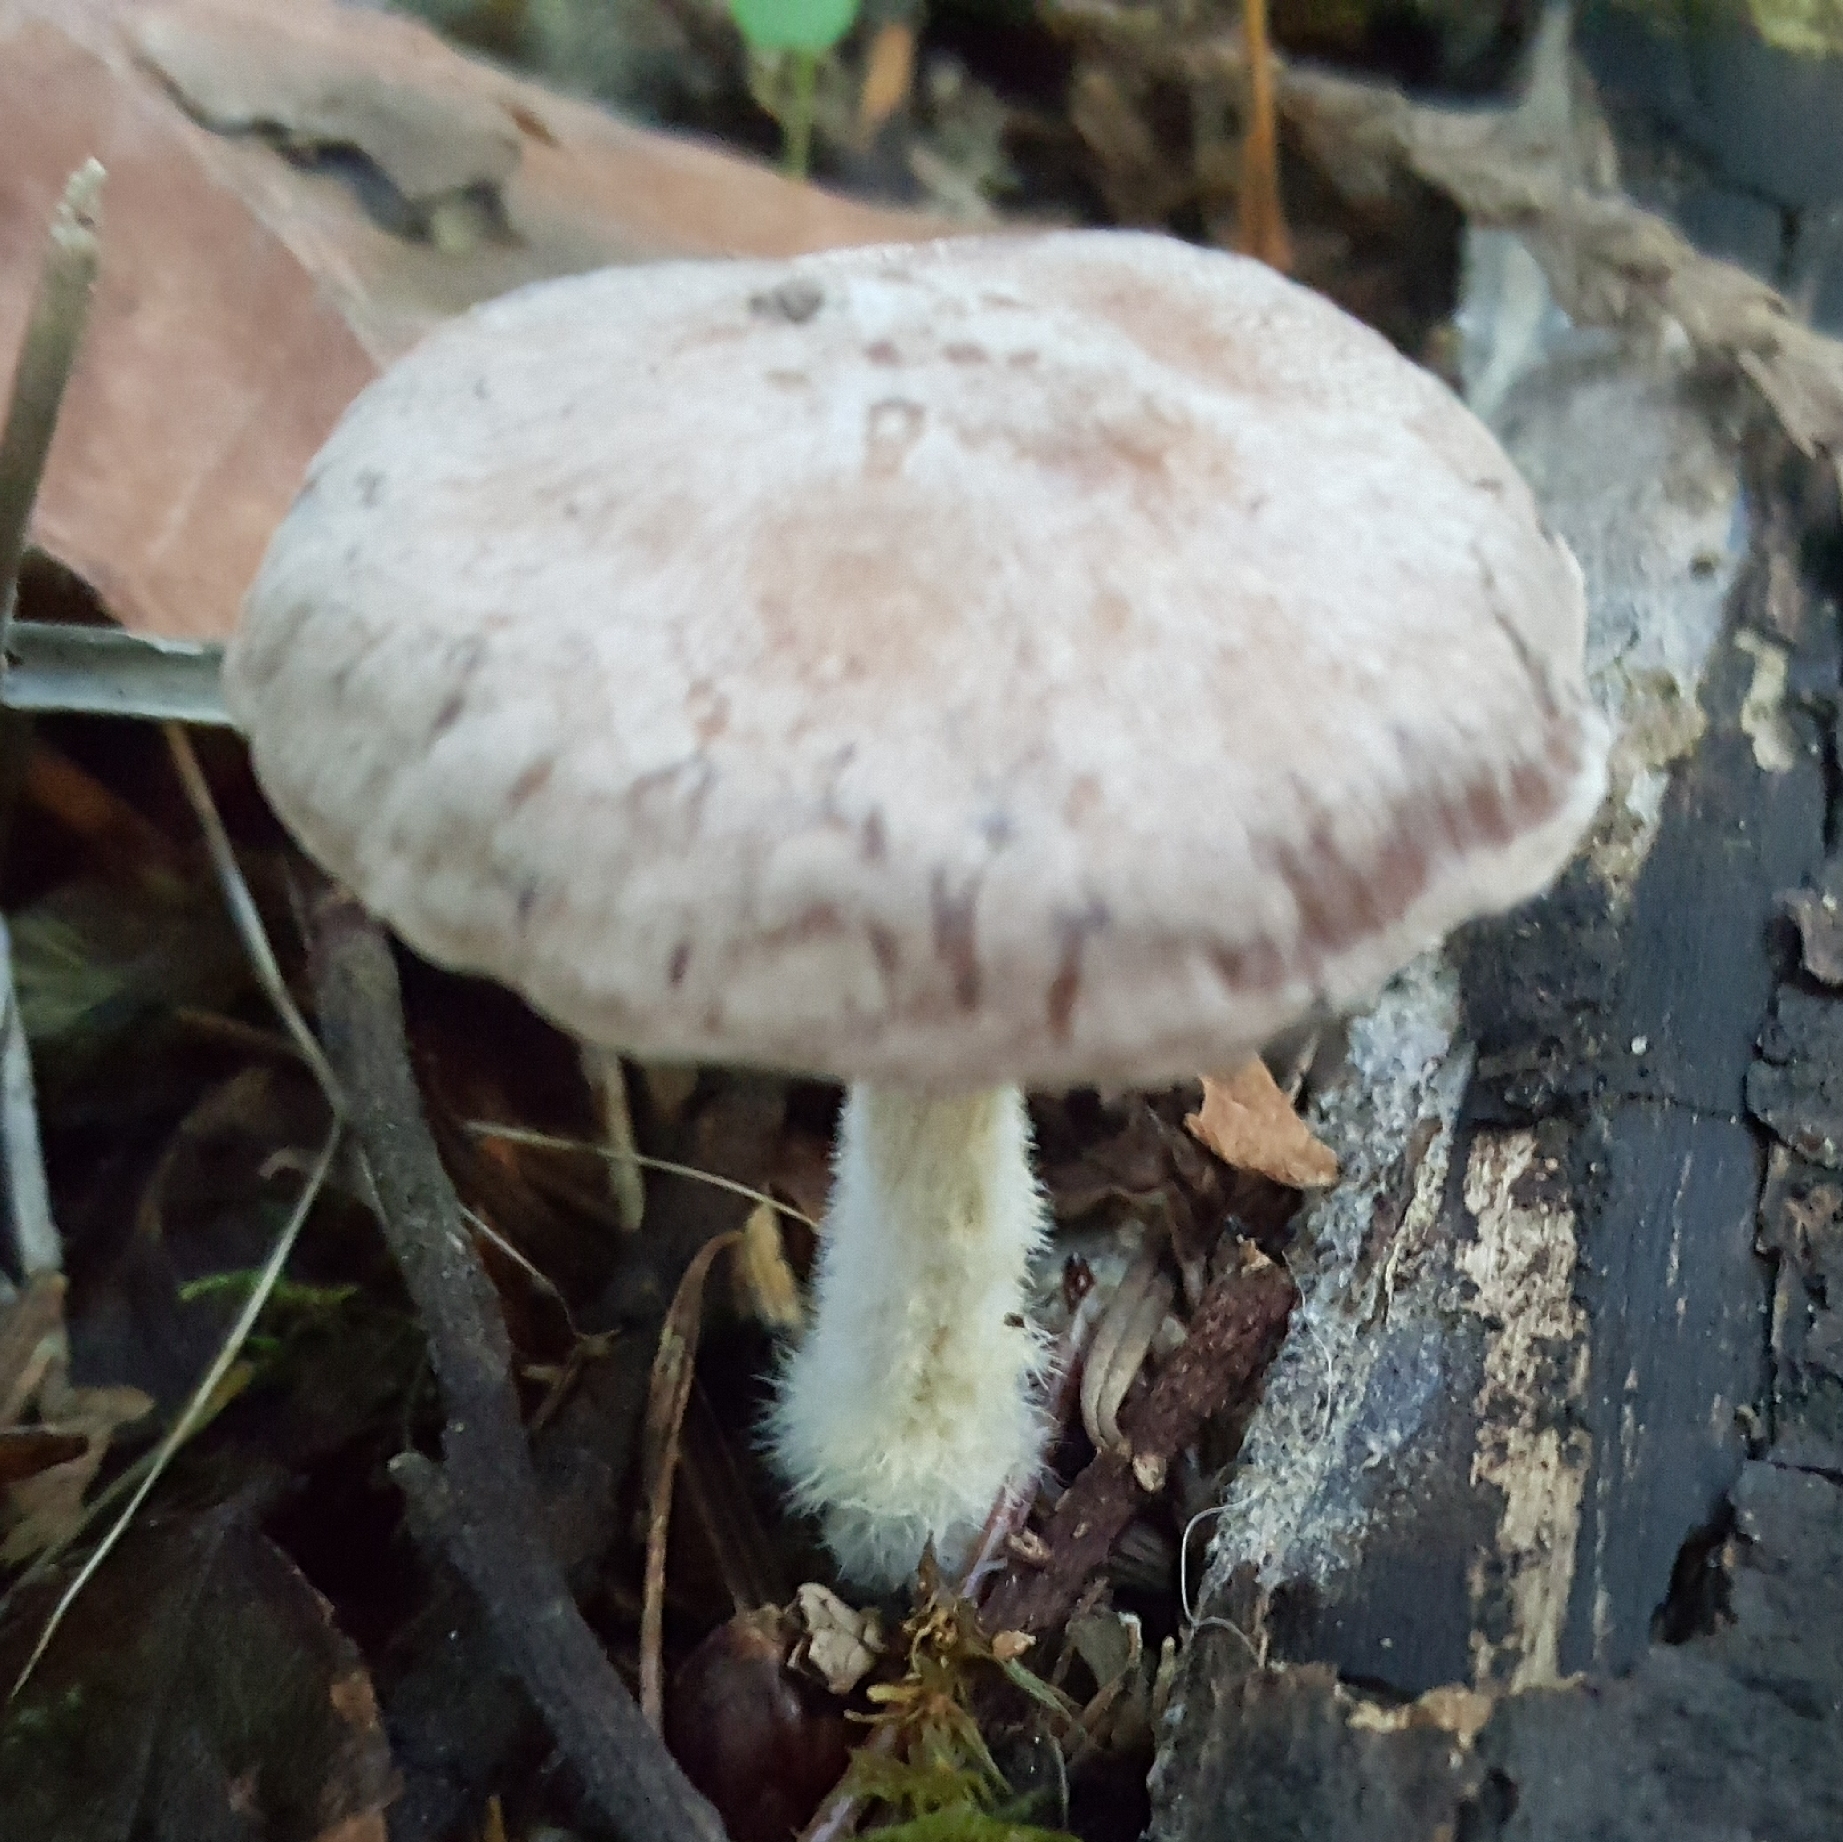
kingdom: Fungi
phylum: Basidiomycota
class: Agaricomycetes
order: Agaricales
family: Omphalotaceae
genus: Collybiopsis
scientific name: Collybiopsis peronata
